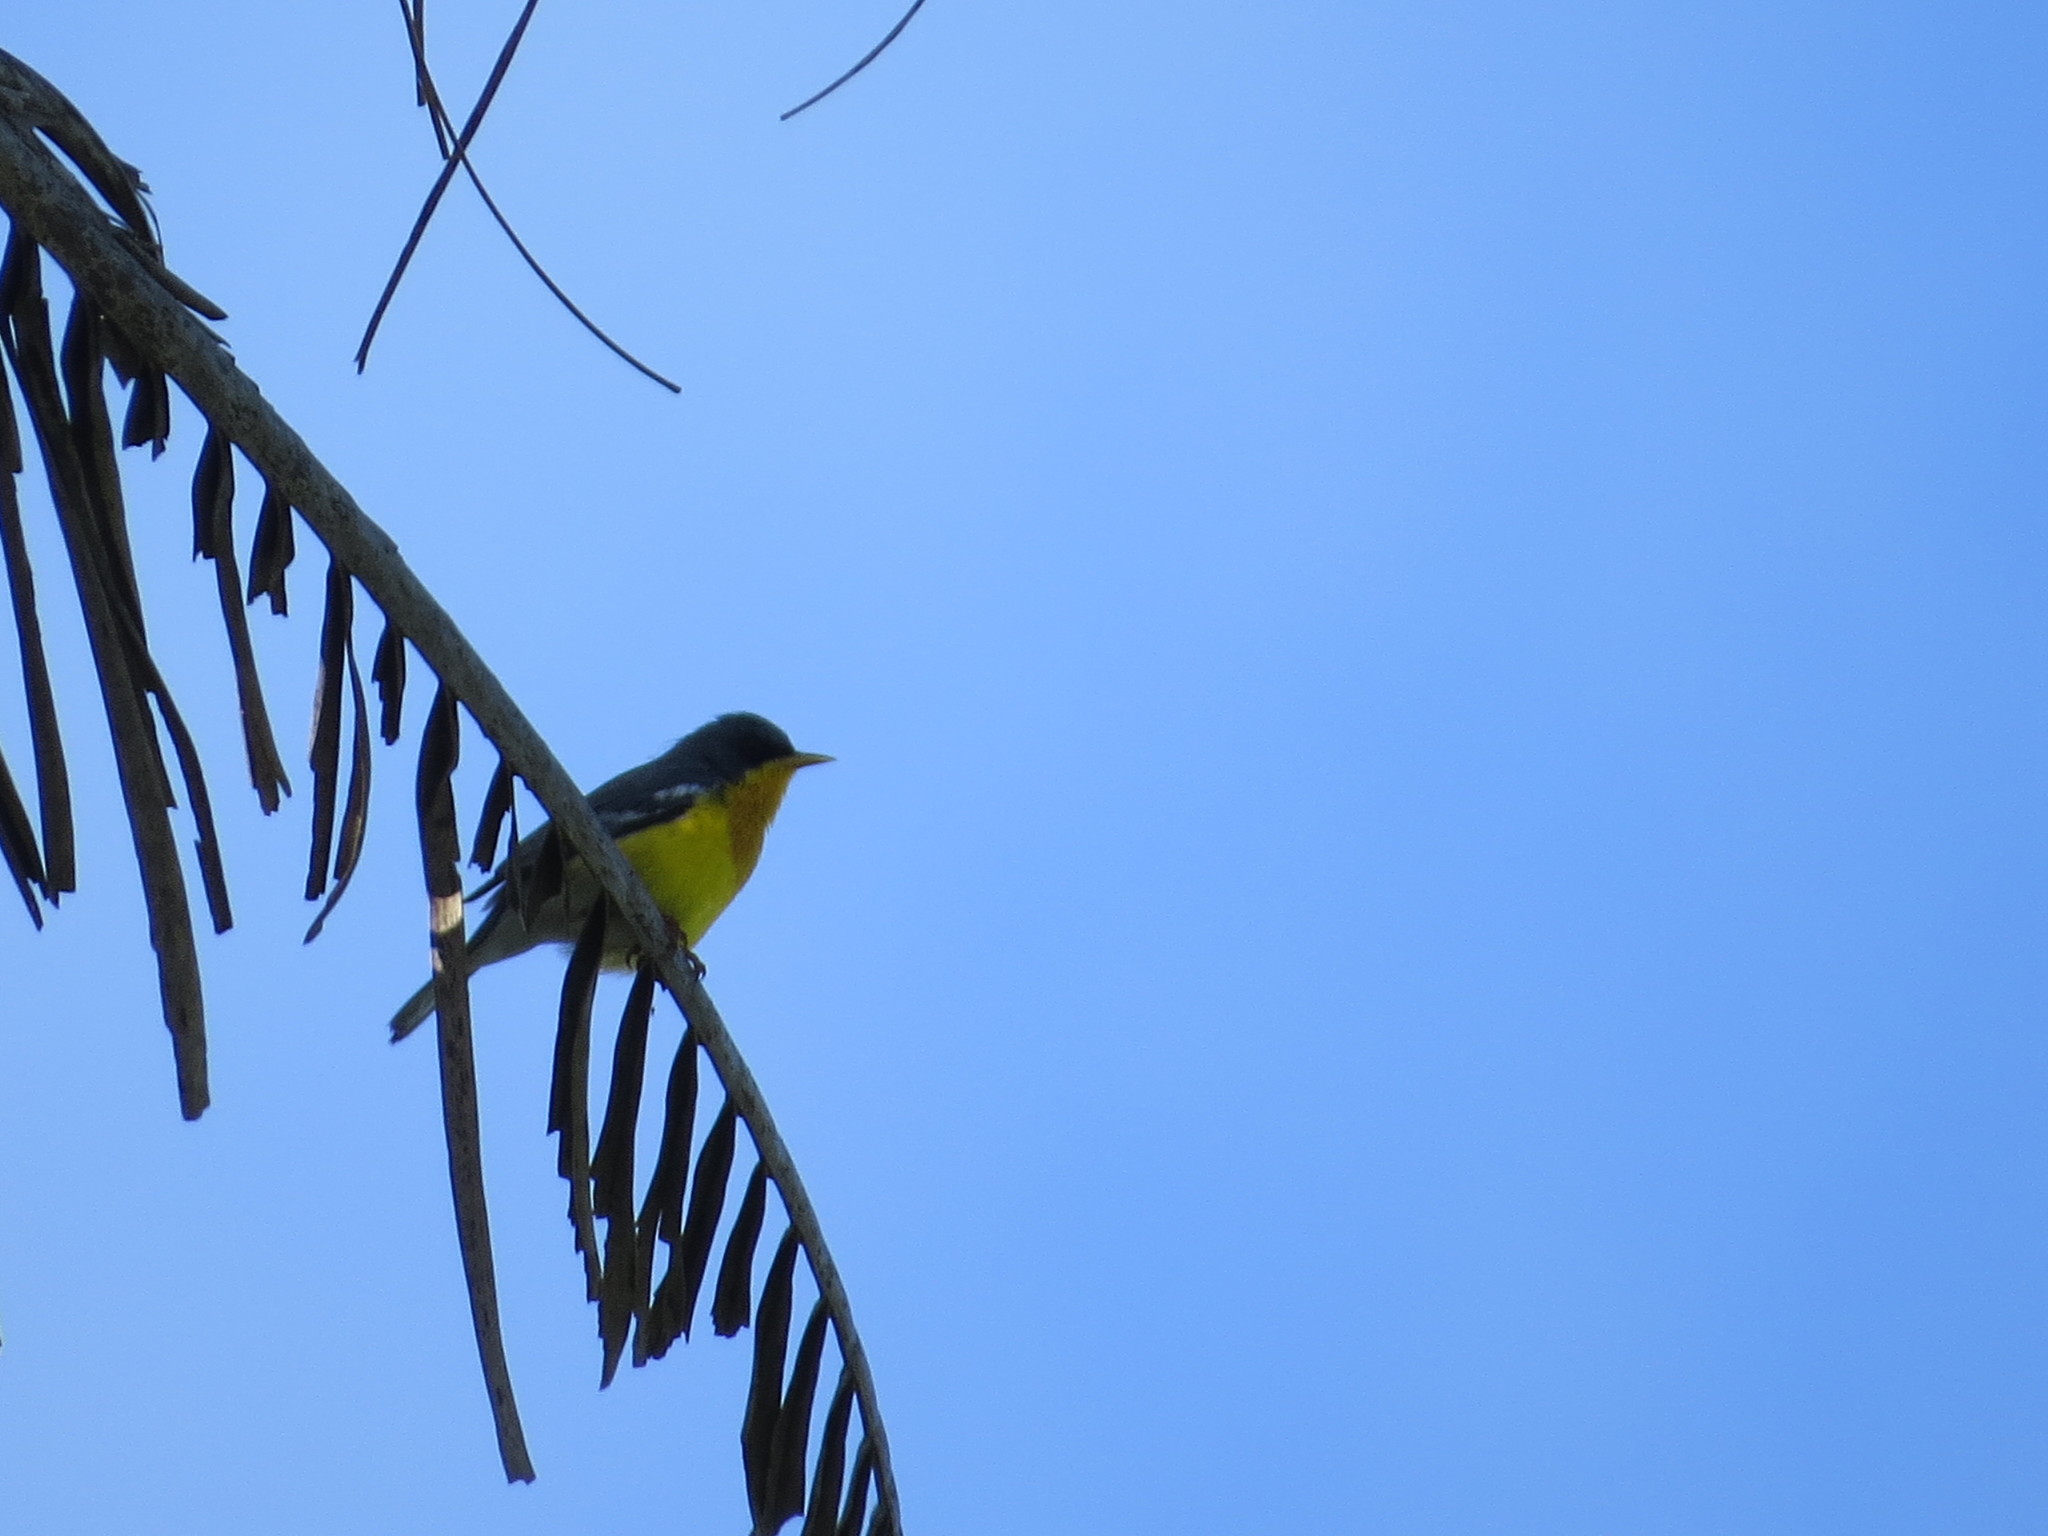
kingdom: Animalia
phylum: Chordata
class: Aves
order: Passeriformes
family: Parulidae
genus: Setophaga
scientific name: Setophaga pitiayumi
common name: Tropical parula
